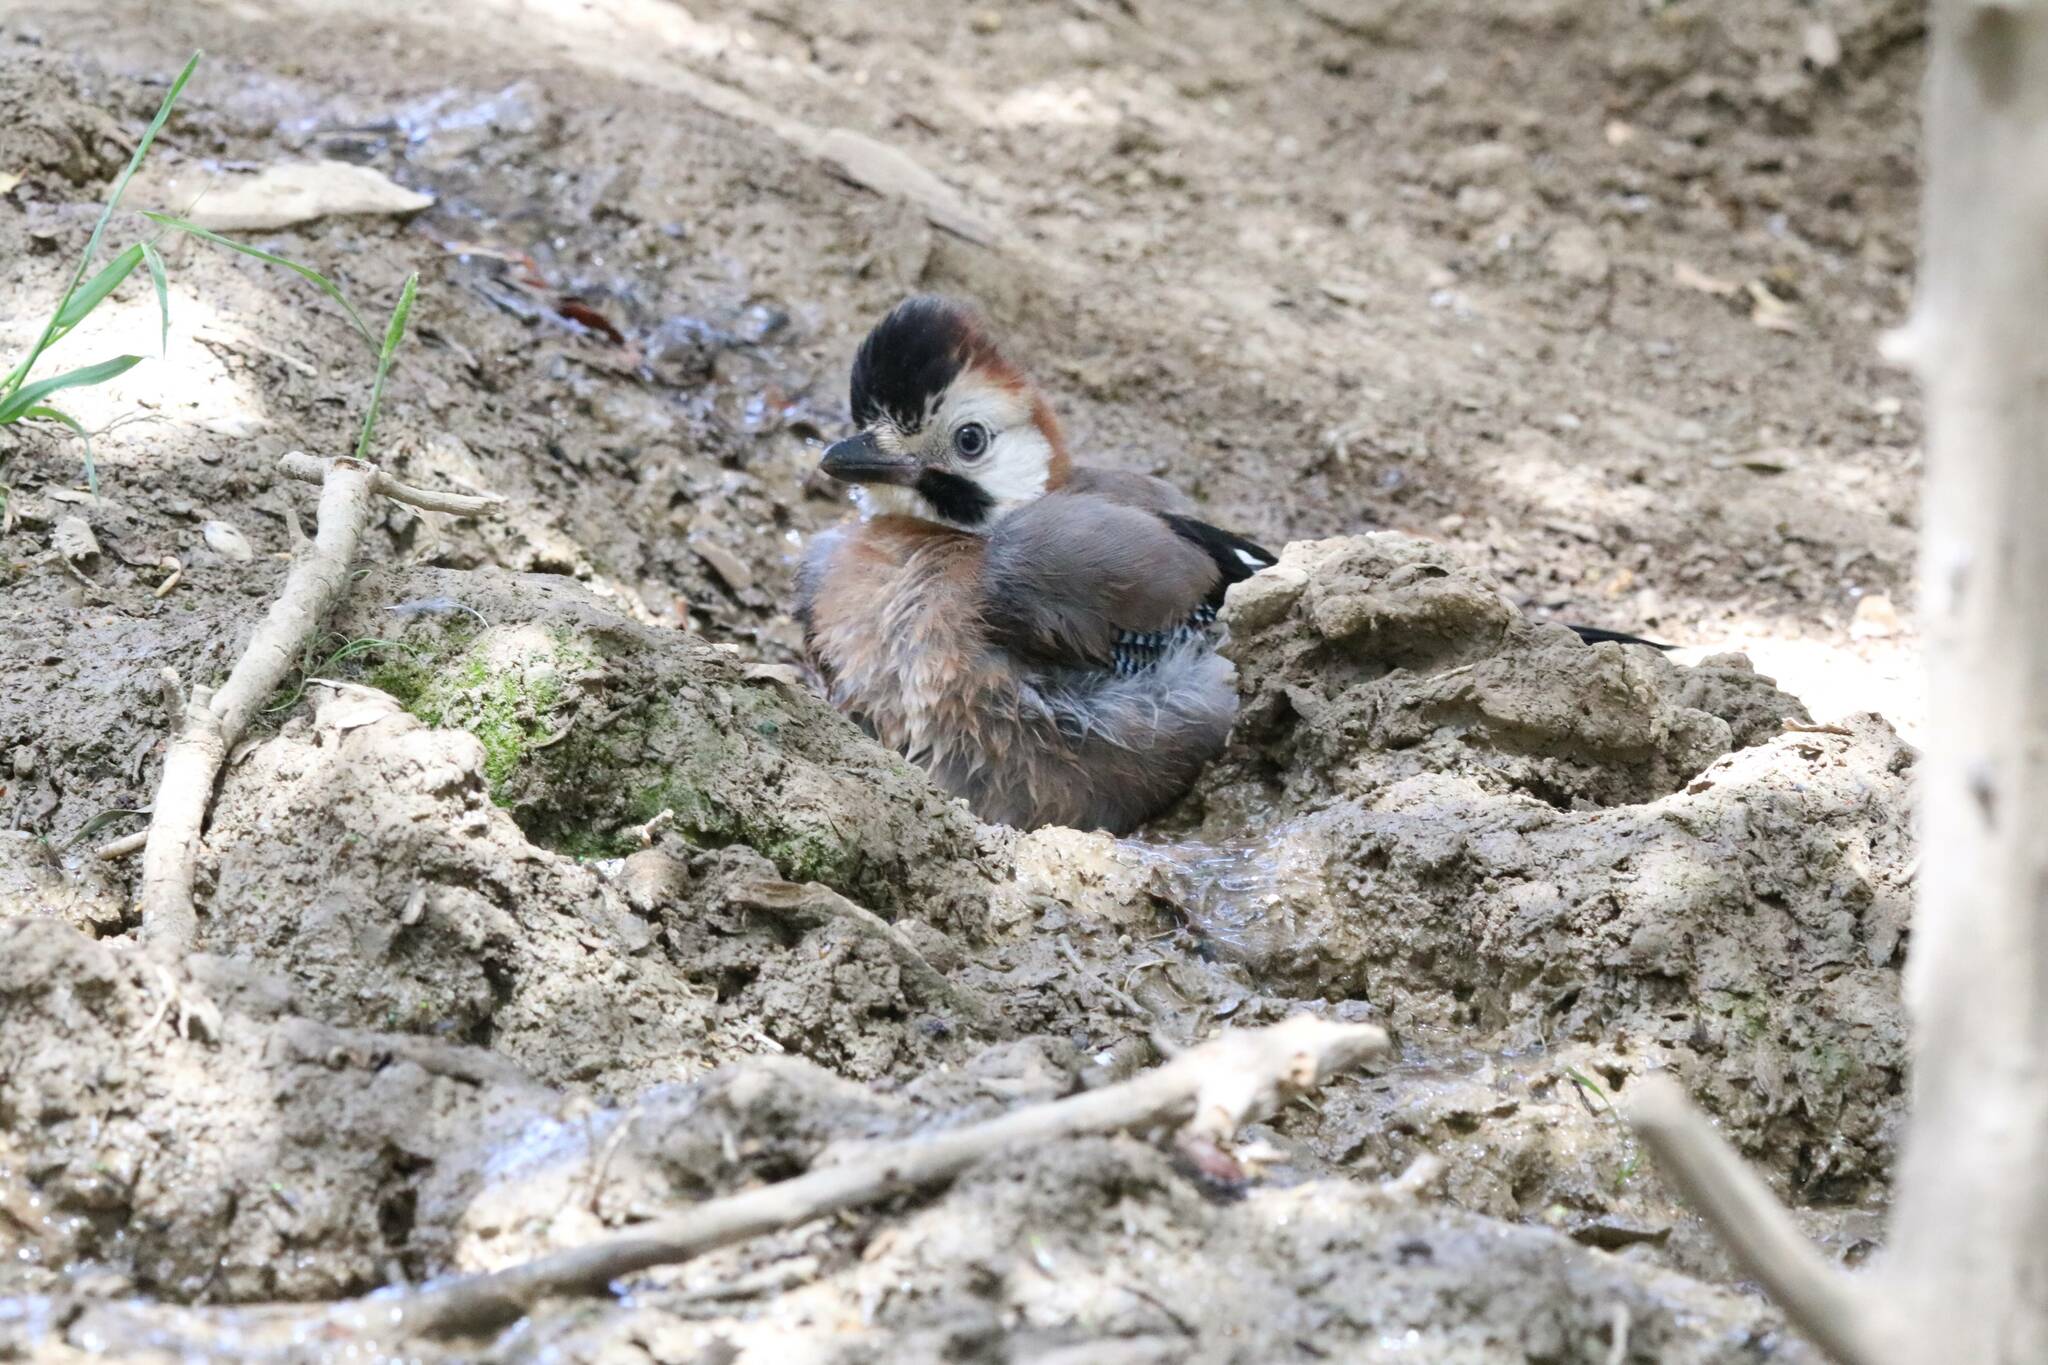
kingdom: Animalia
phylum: Chordata
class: Aves
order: Passeriformes
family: Corvidae
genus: Garrulus
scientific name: Garrulus glandarius
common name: Eurasian jay
